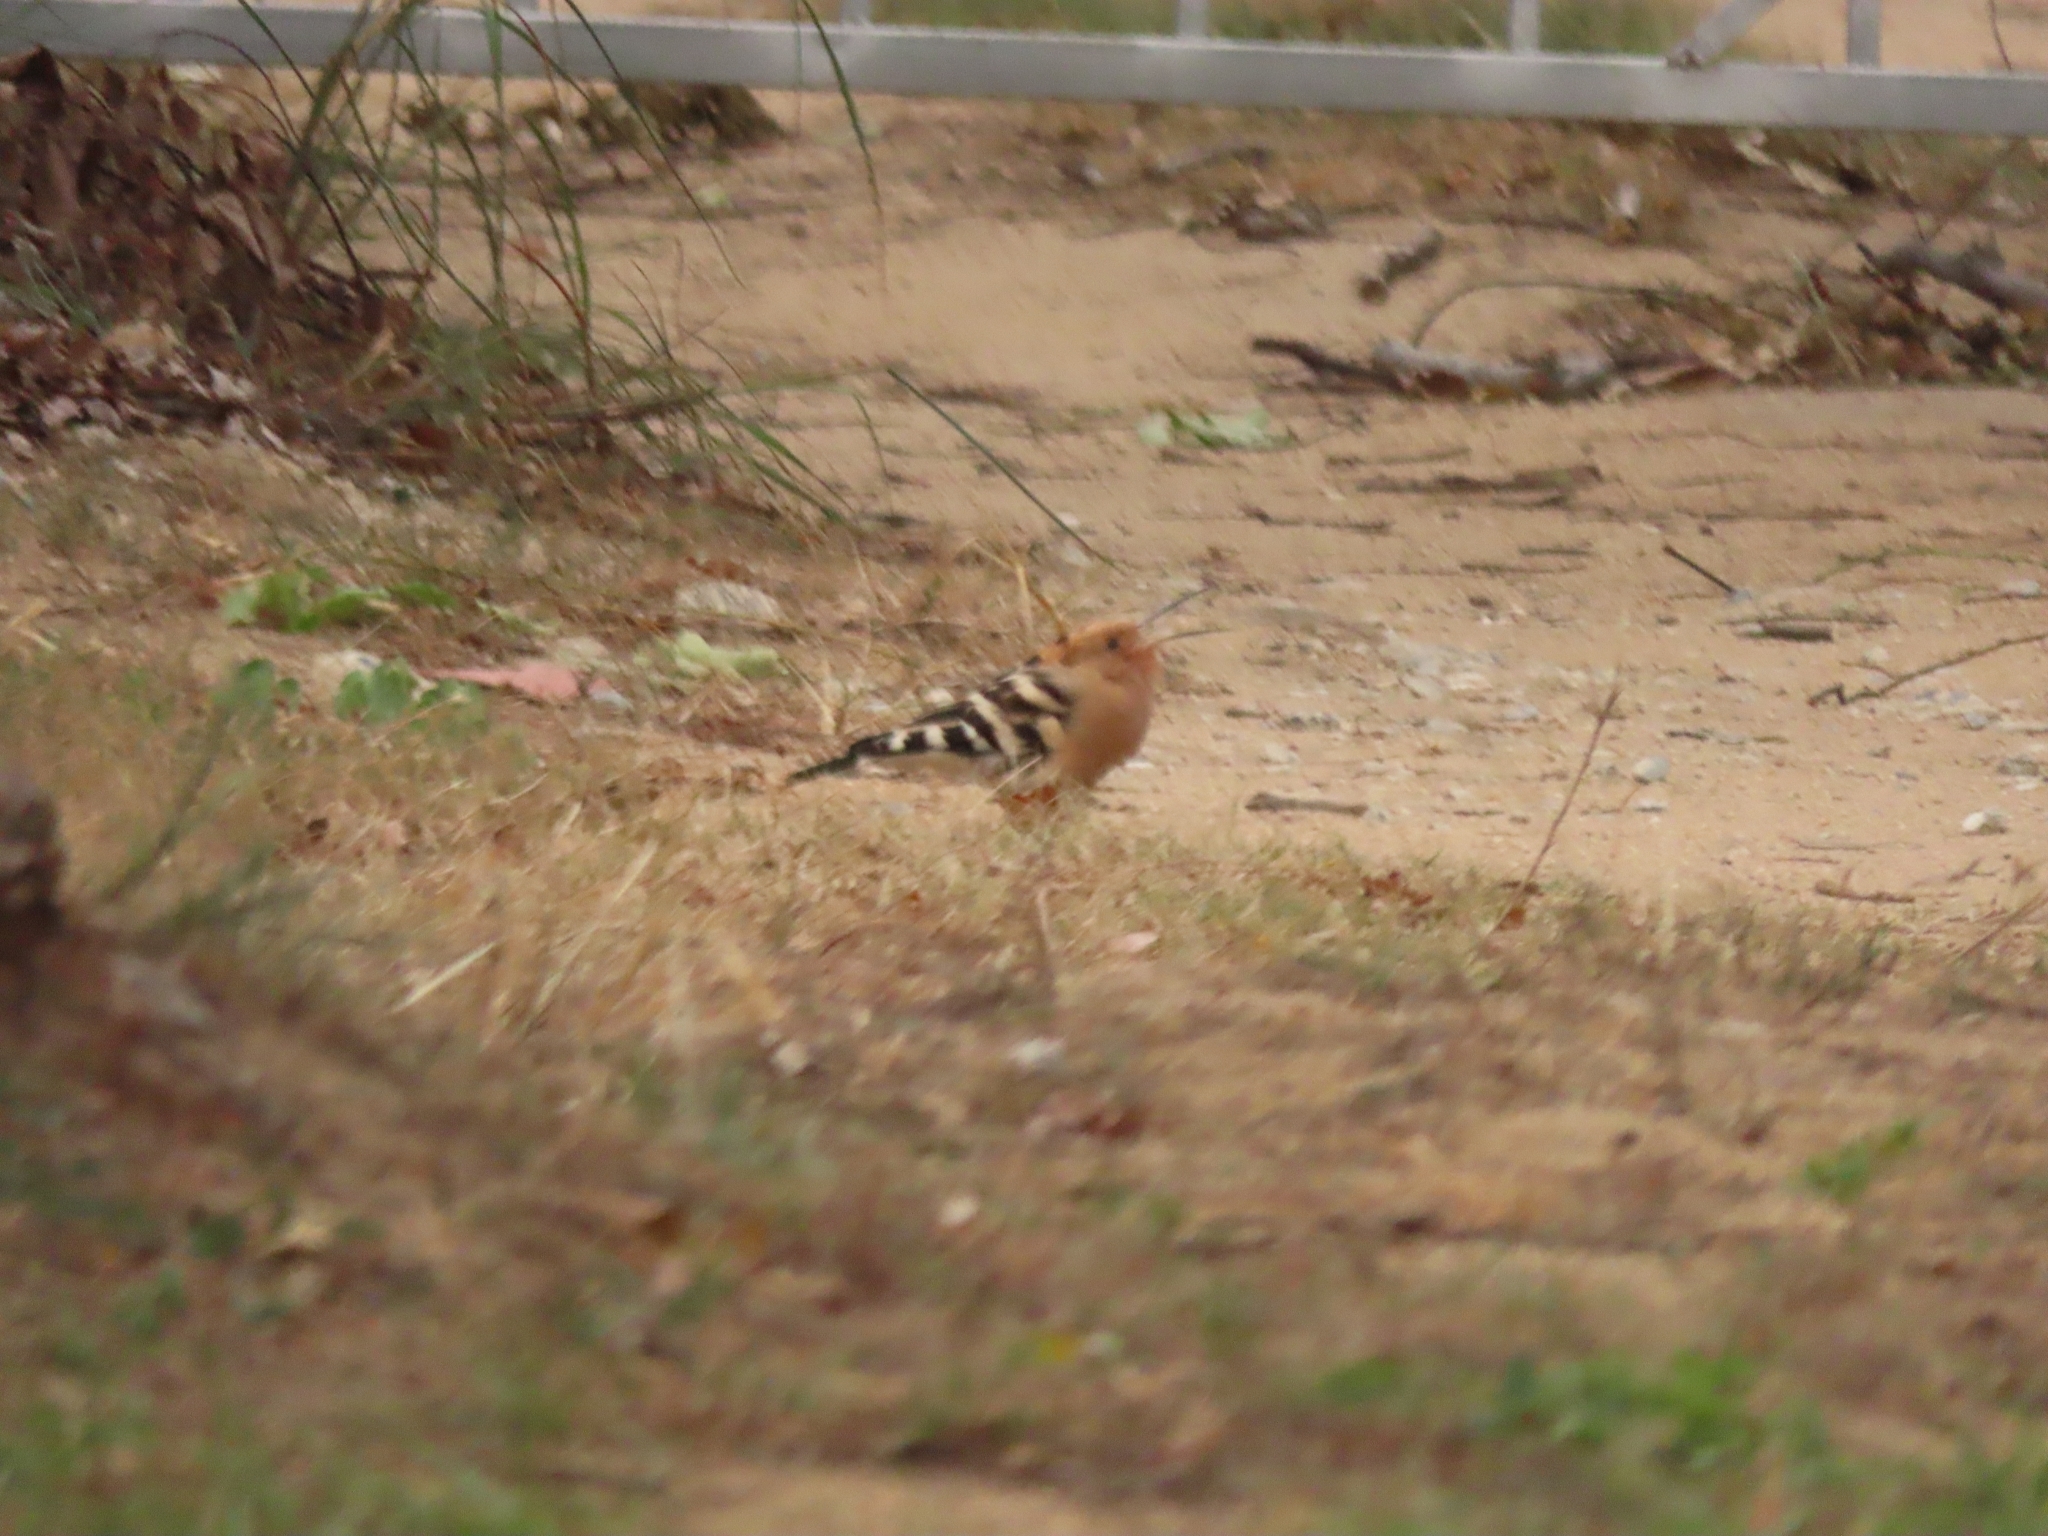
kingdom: Animalia
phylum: Chordata
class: Aves
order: Bucerotiformes
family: Upupidae
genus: Upupa
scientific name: Upupa epops
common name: Eurasian hoopoe
